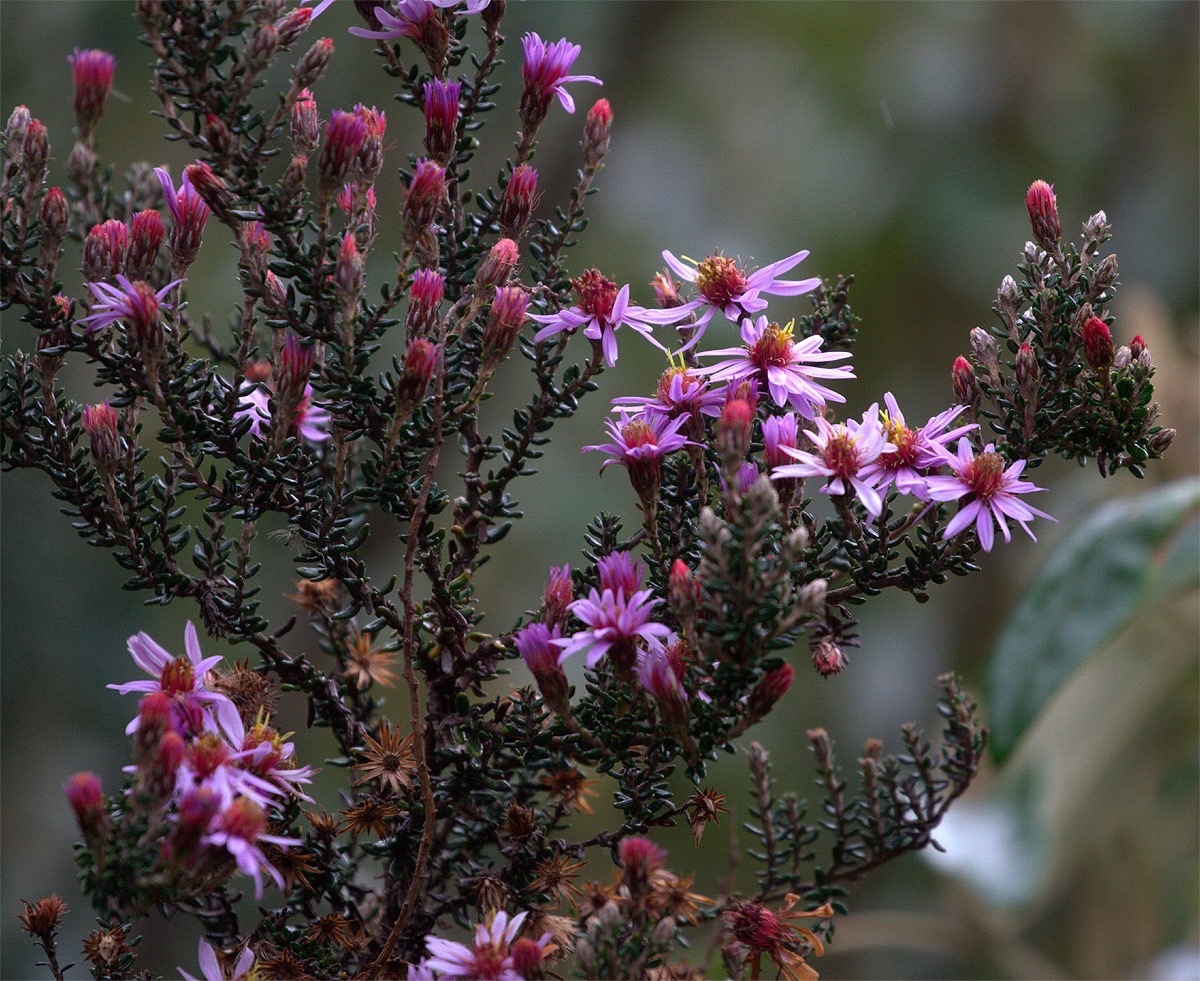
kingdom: Plantae
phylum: Tracheophyta
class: Magnoliopsida
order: Asterales
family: Asteraceae
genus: Diplostephium
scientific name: Diplostephium hartwegii
